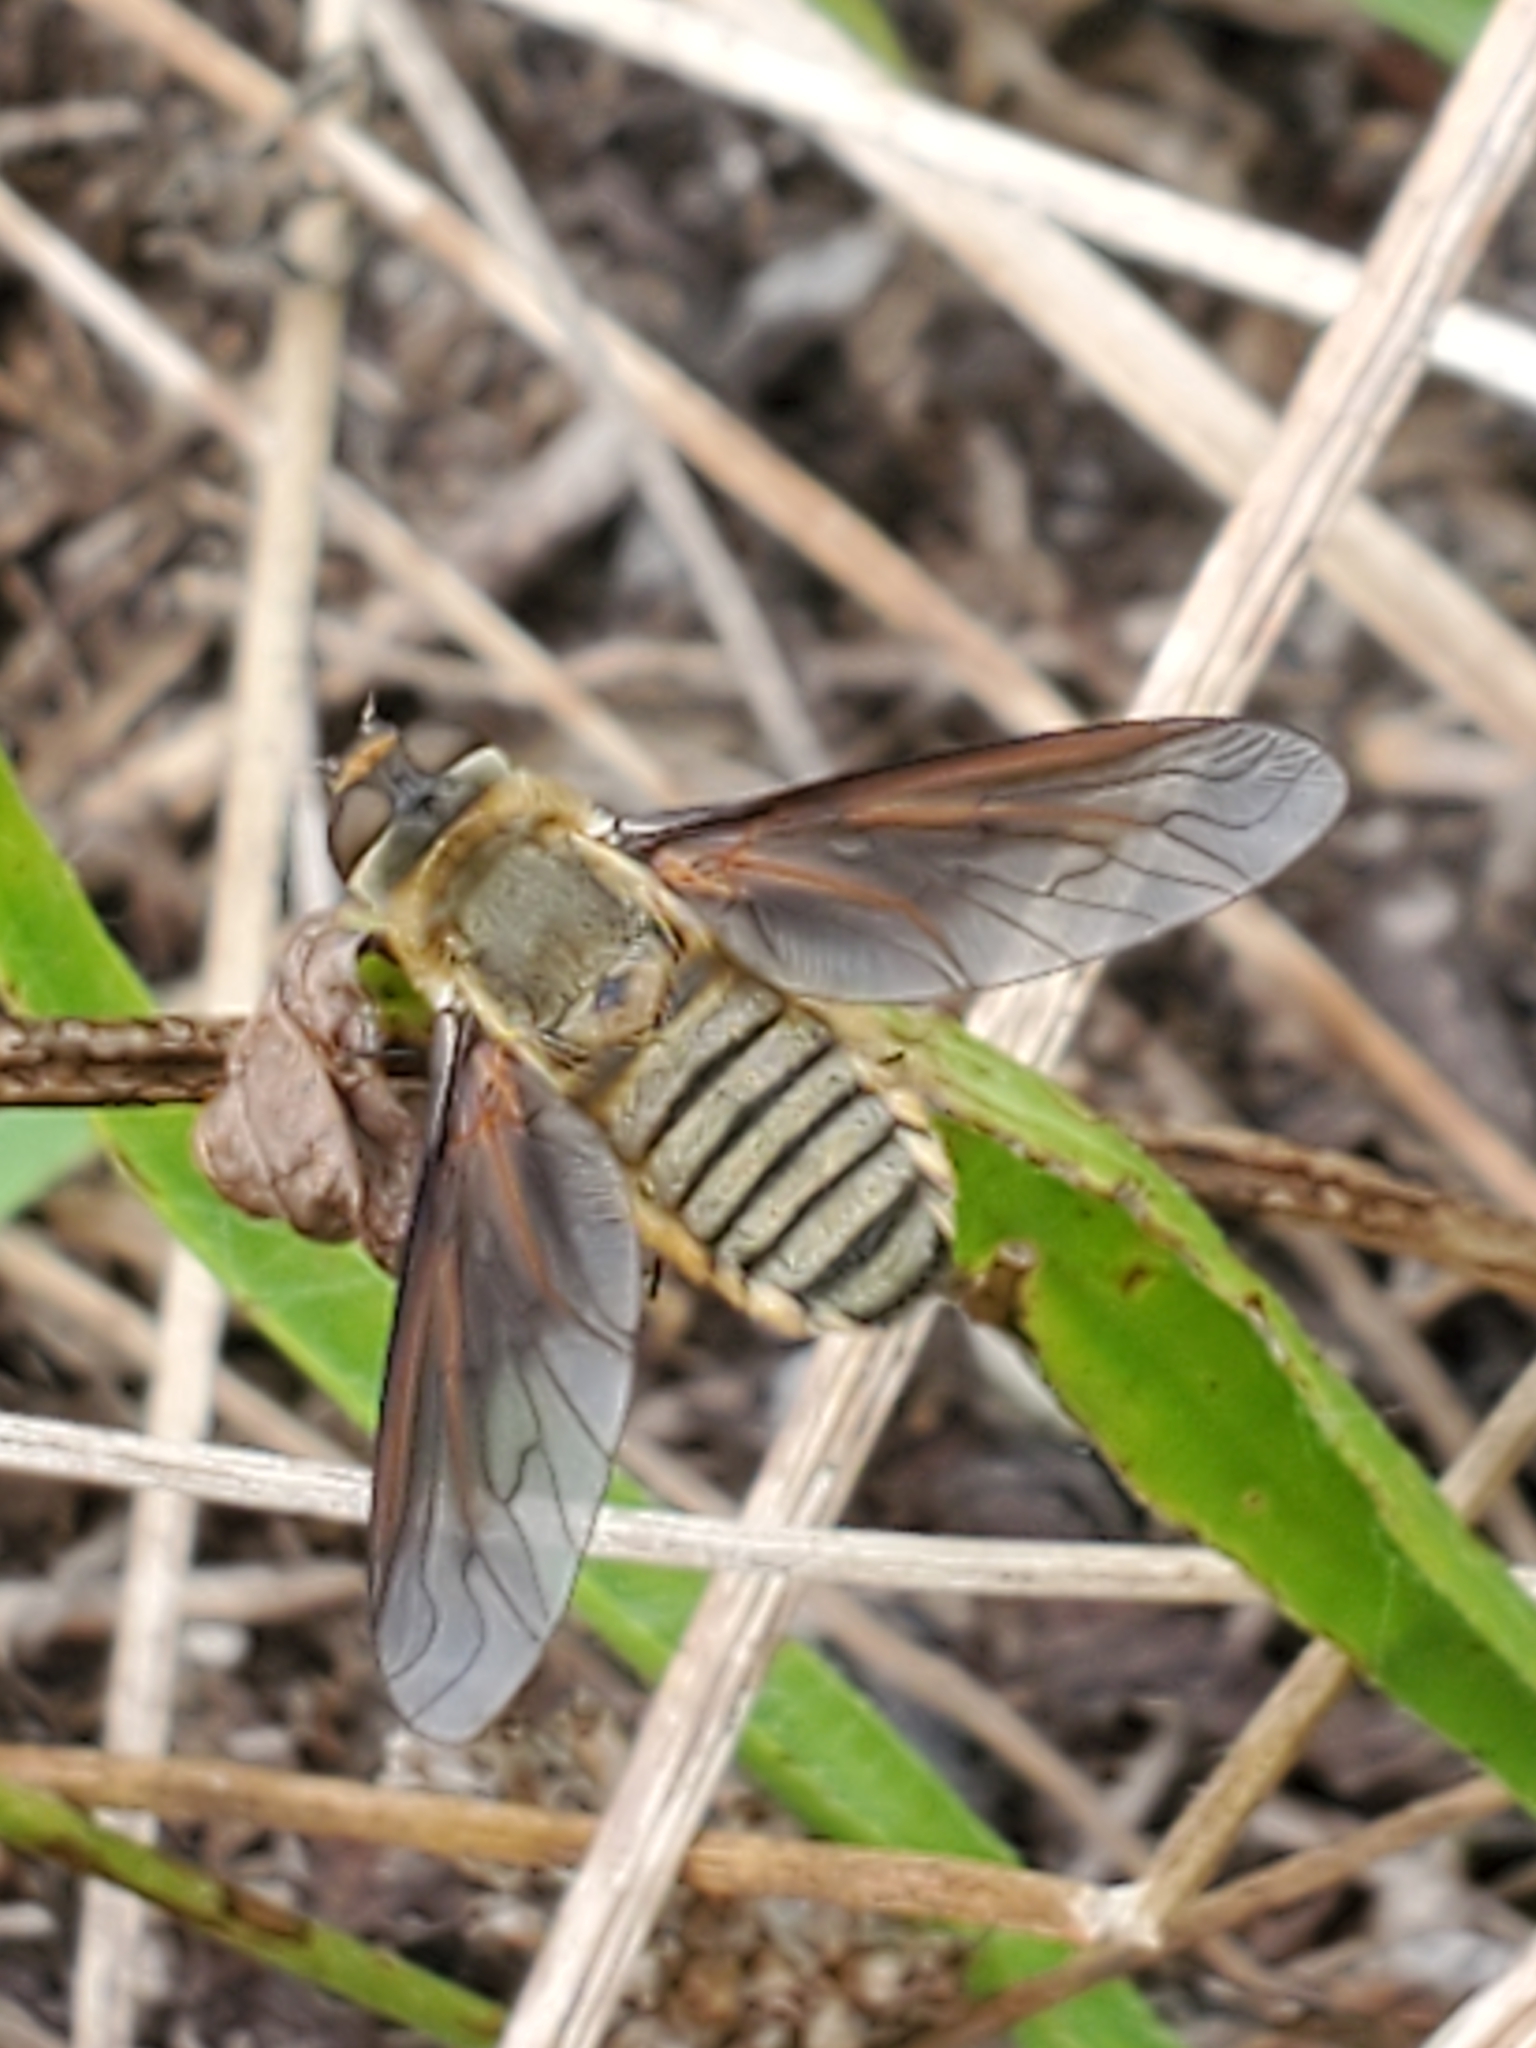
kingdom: Animalia
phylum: Arthropoda
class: Insecta
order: Diptera
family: Bombyliidae
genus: Poecilanthrax
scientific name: Poecilanthrax lucifer
